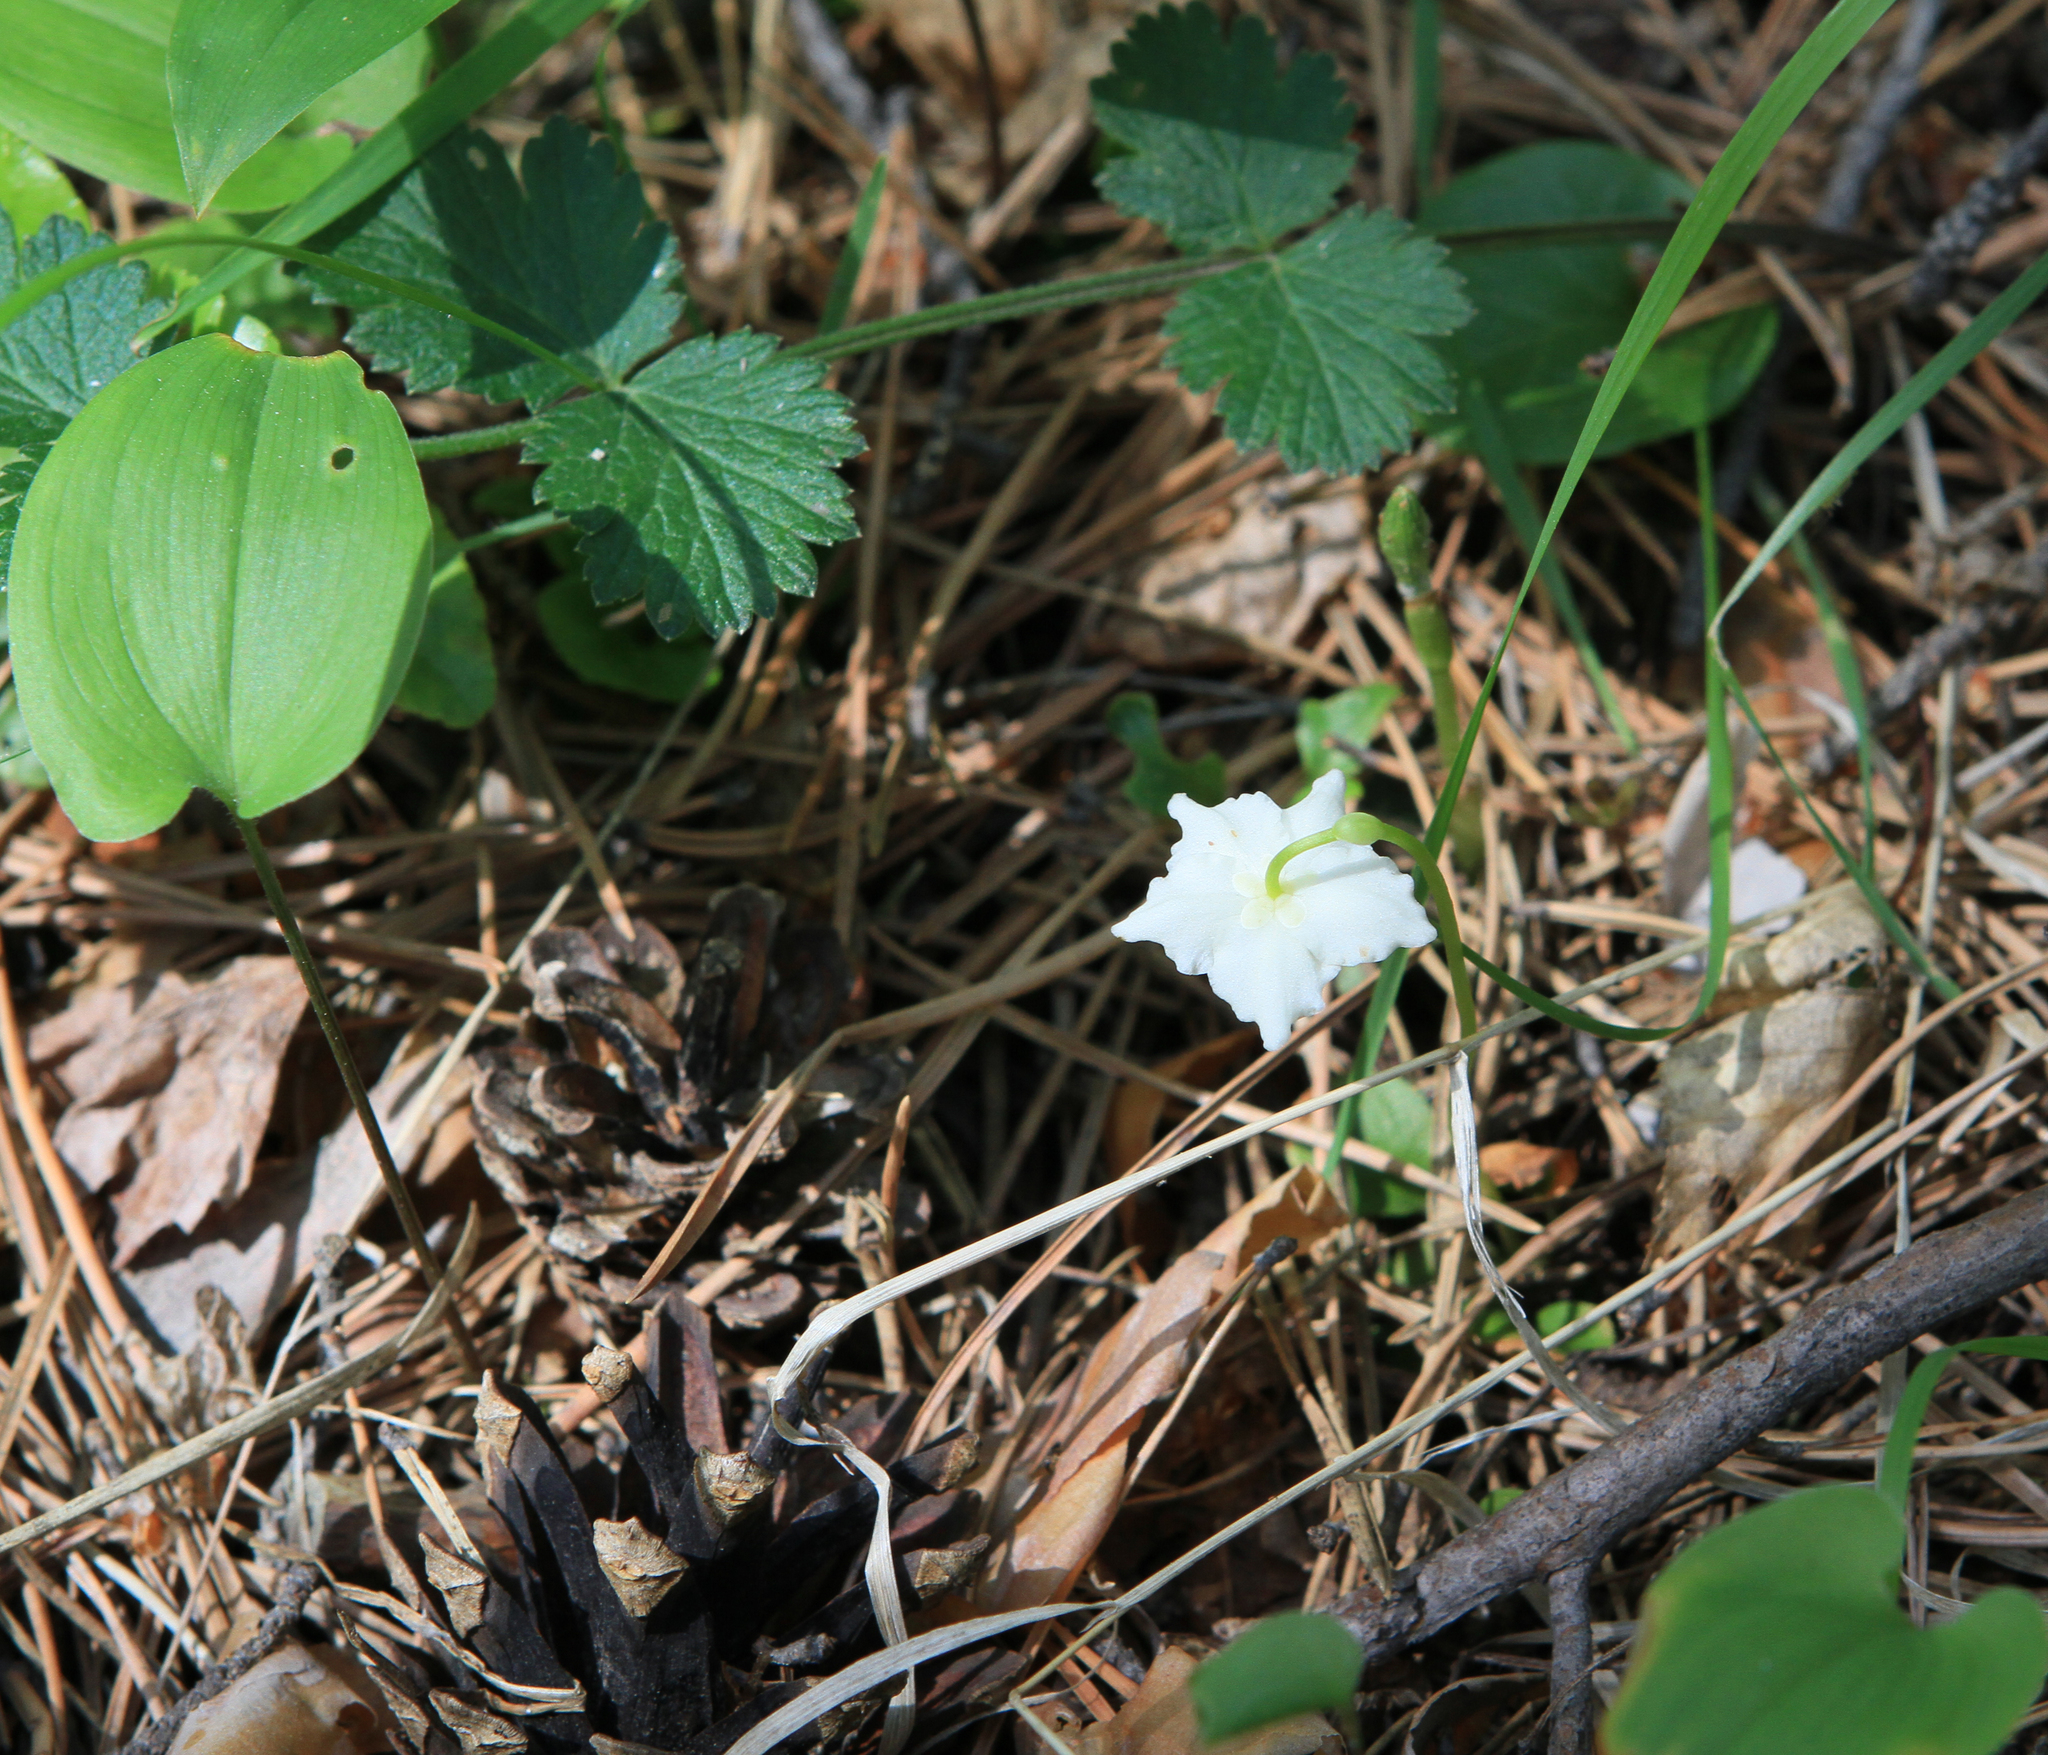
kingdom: Plantae
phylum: Tracheophyta
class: Magnoliopsida
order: Ericales
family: Ericaceae
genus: Moneses
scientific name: Moneses uniflora
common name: One-flowered wintergreen
